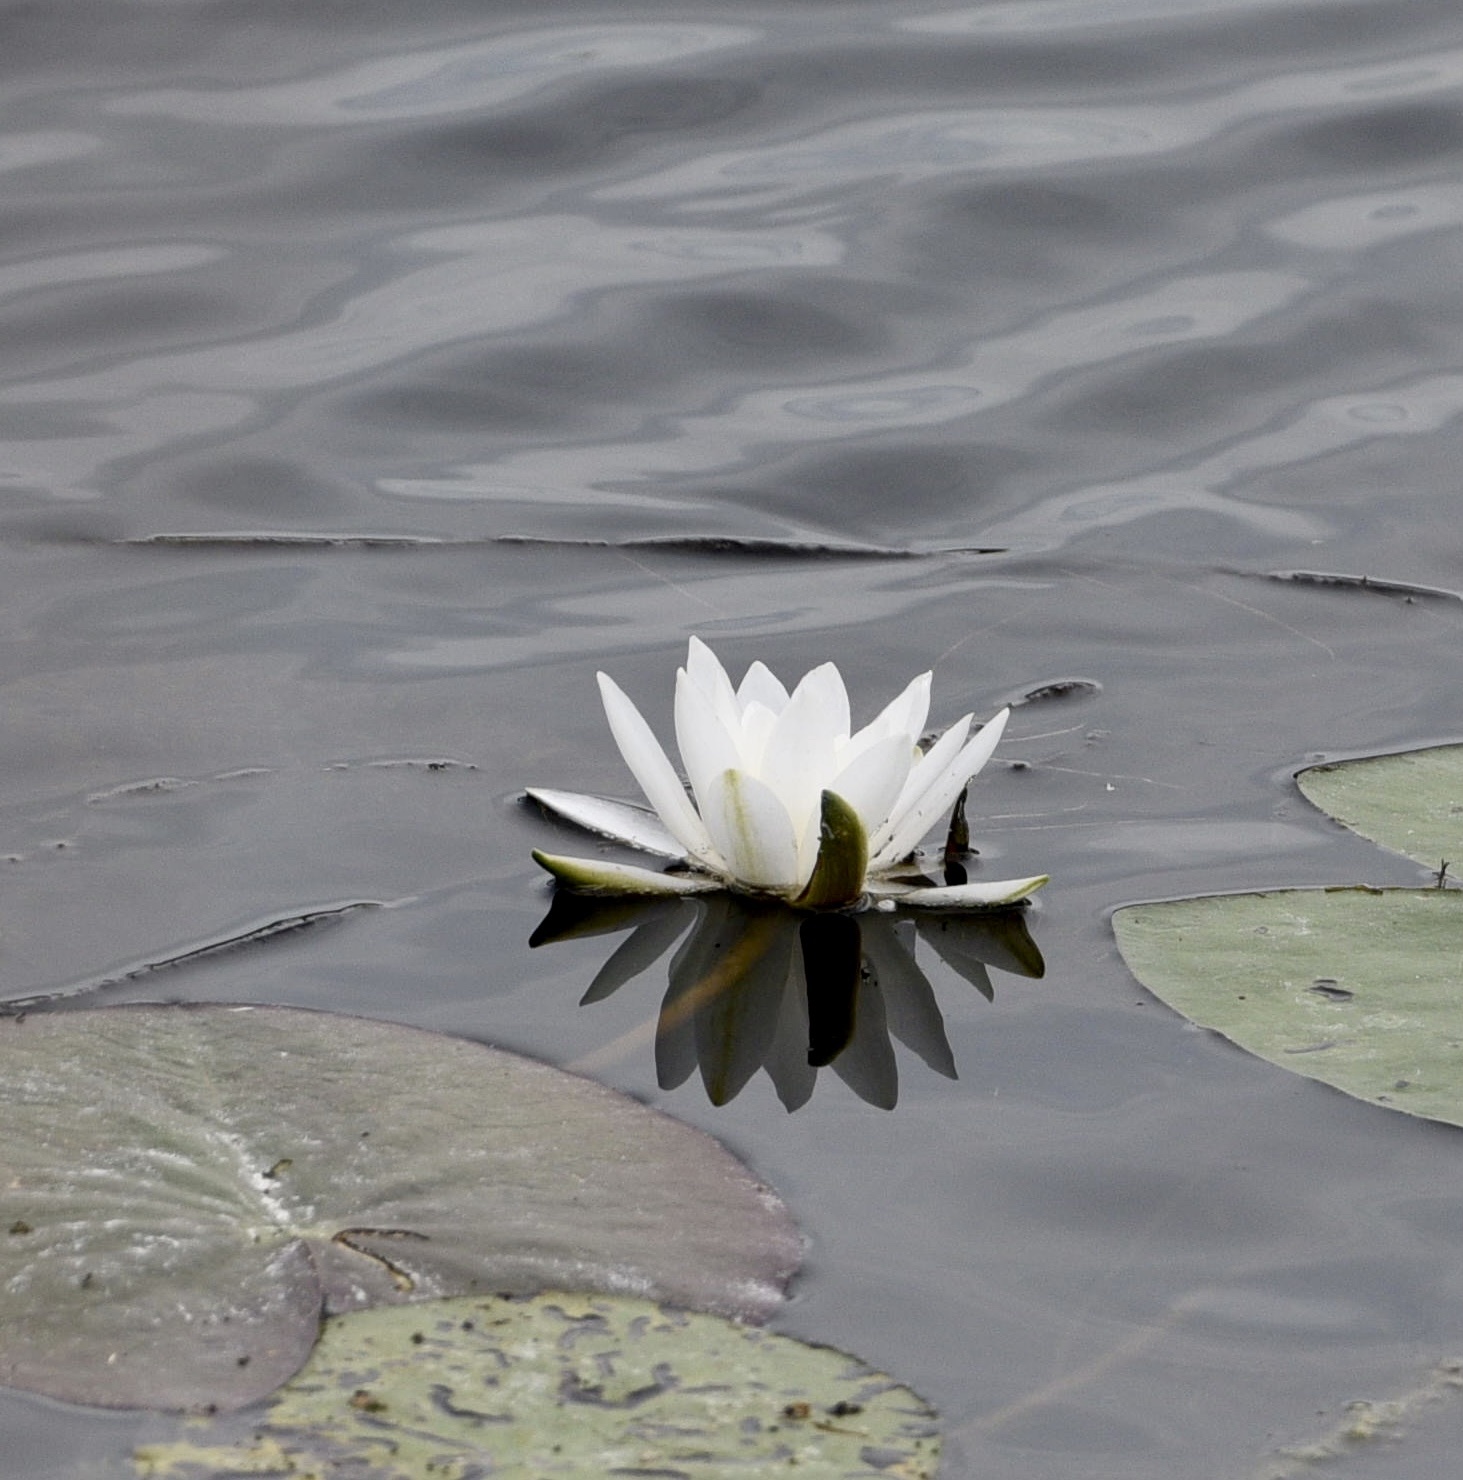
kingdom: Plantae
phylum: Tracheophyta
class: Magnoliopsida
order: Nymphaeales
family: Nymphaeaceae
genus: Nymphaea
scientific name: Nymphaea candida
